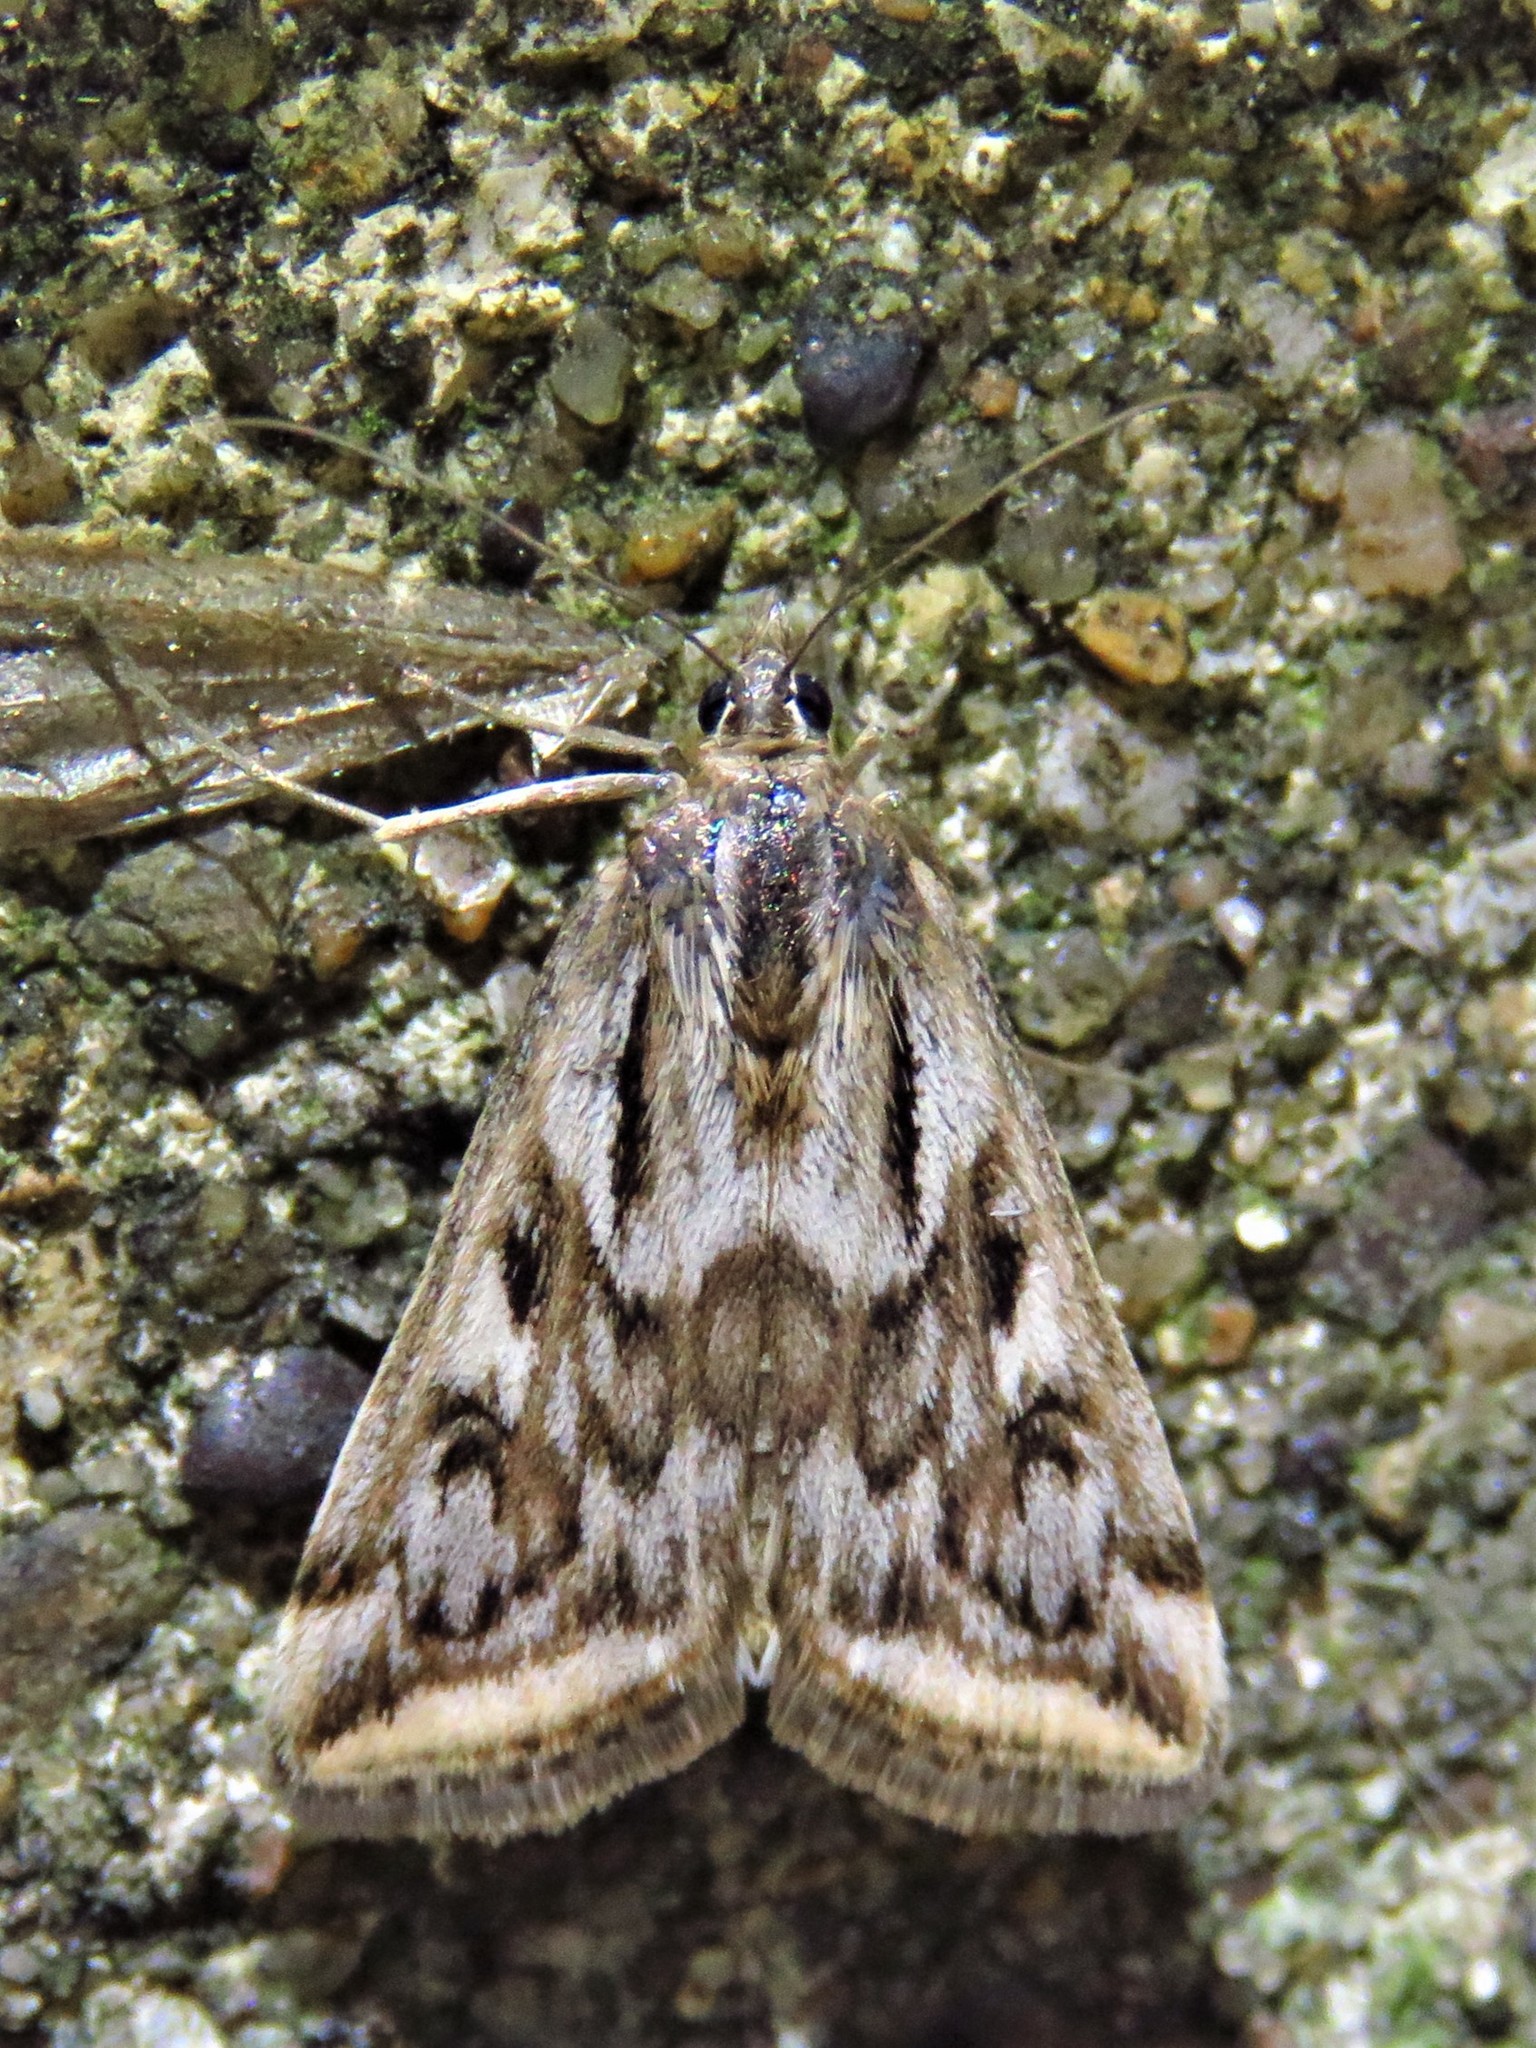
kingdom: Animalia
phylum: Arthropoda
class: Insecta
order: Lepidoptera
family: Crambidae
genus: Loxostege
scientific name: Loxostege cereralis
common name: Alfalfa webworm moth
